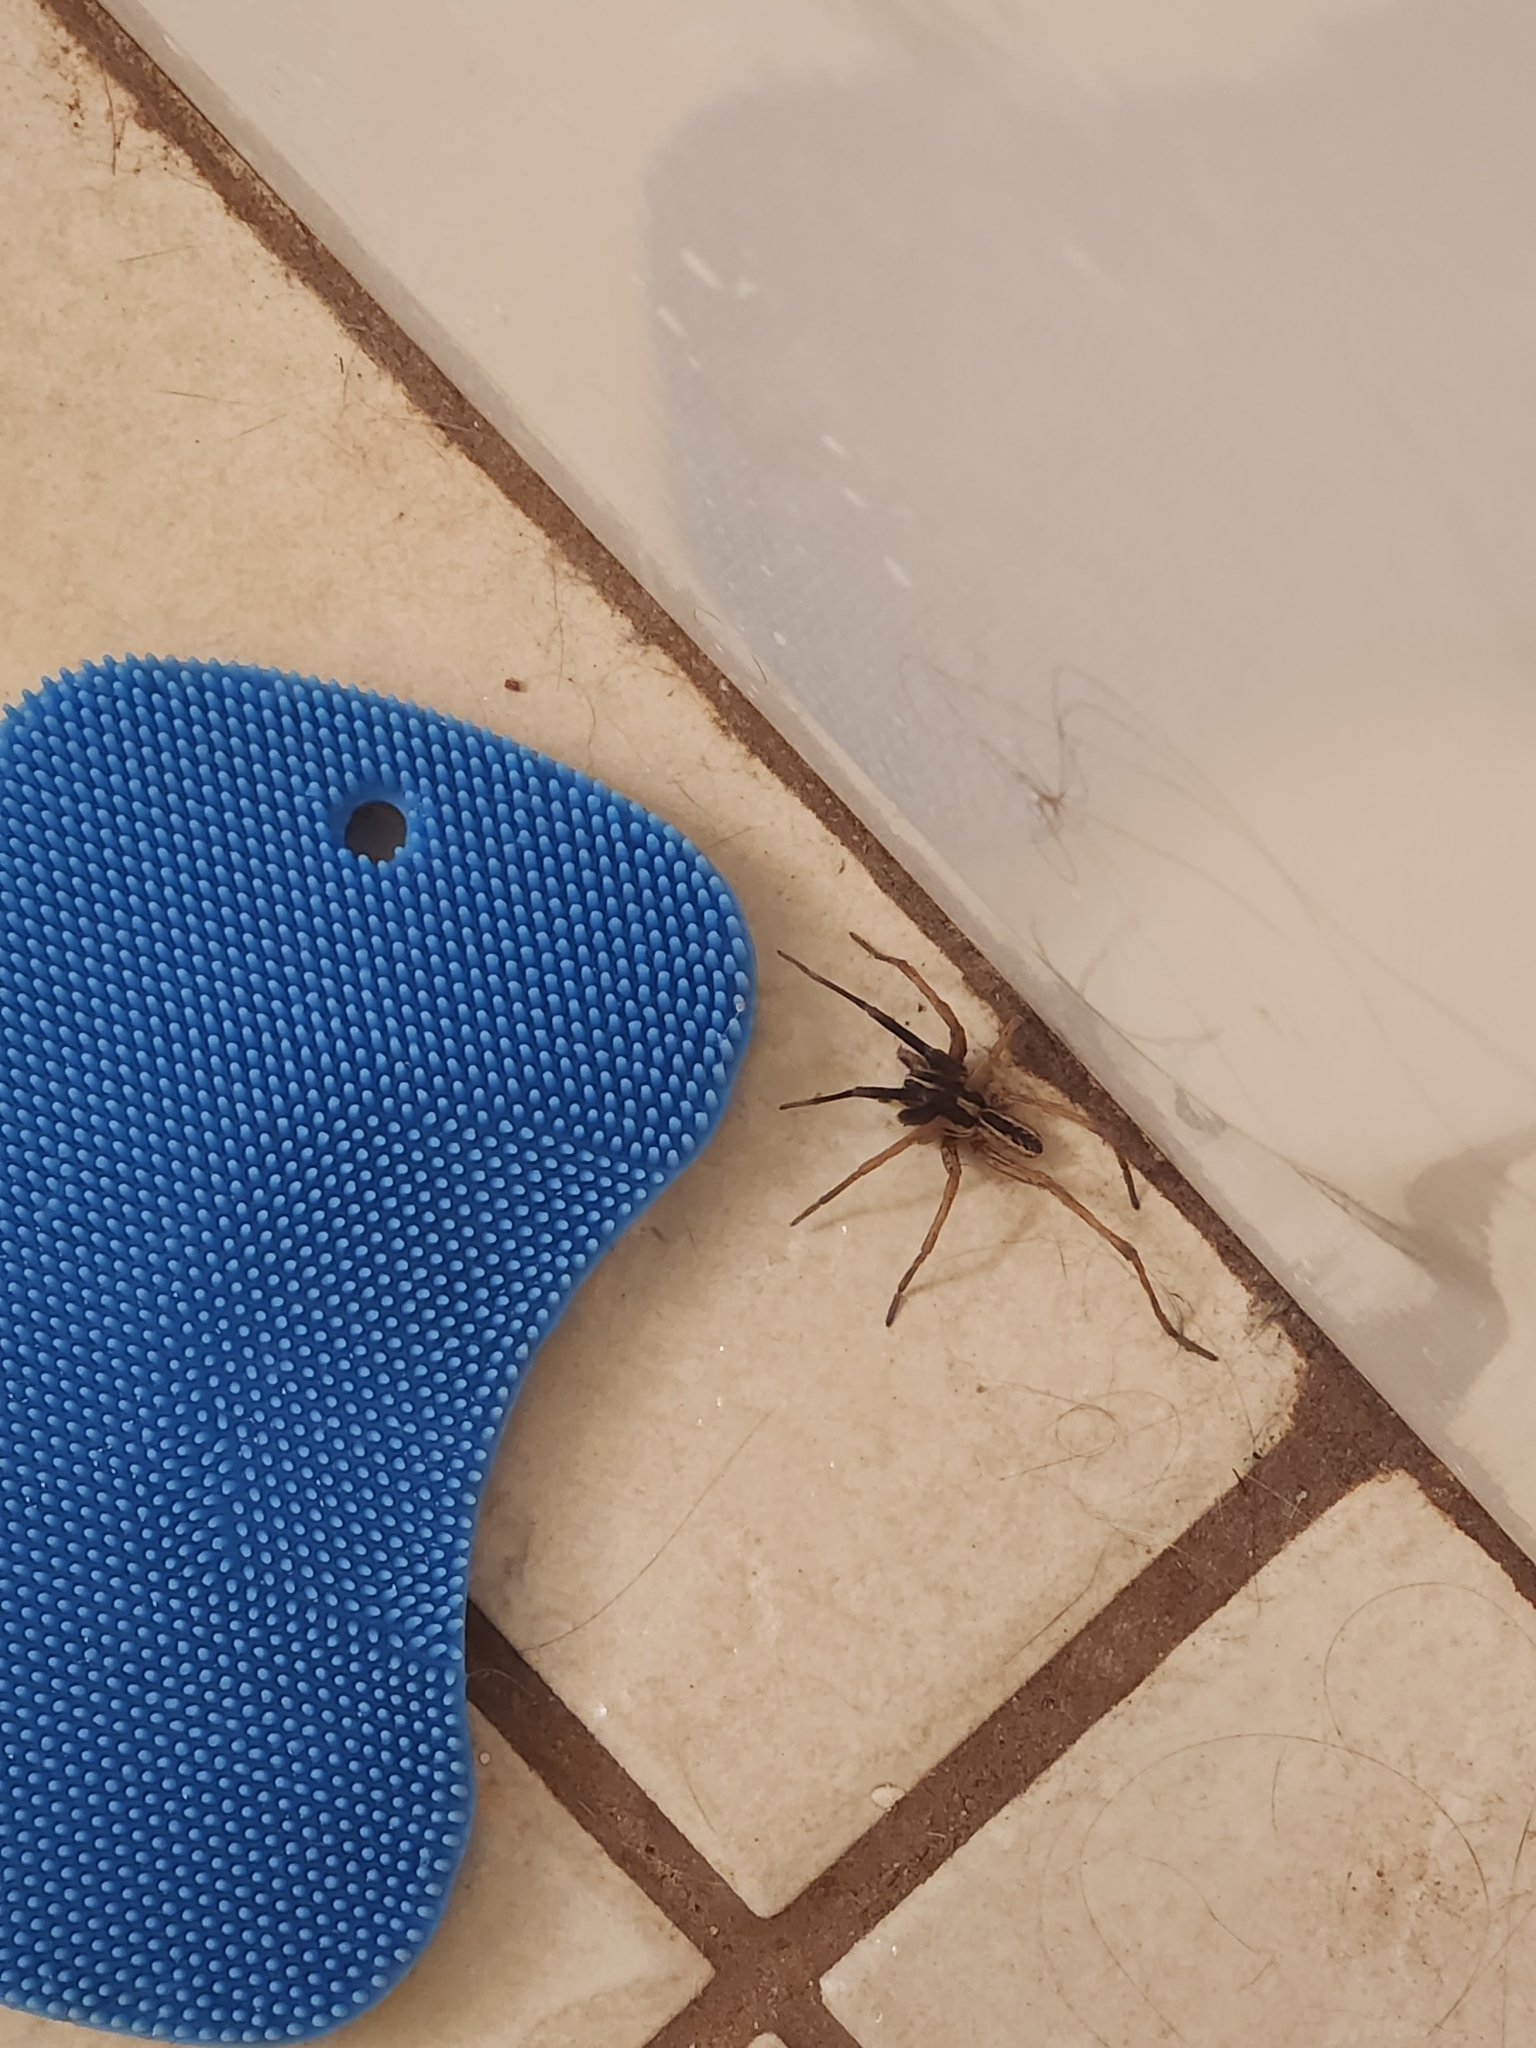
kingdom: Animalia
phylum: Arthropoda
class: Arachnida
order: Araneae
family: Lycosidae
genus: Rabidosa
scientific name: Rabidosa rabida
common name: Rabid wolf spider
